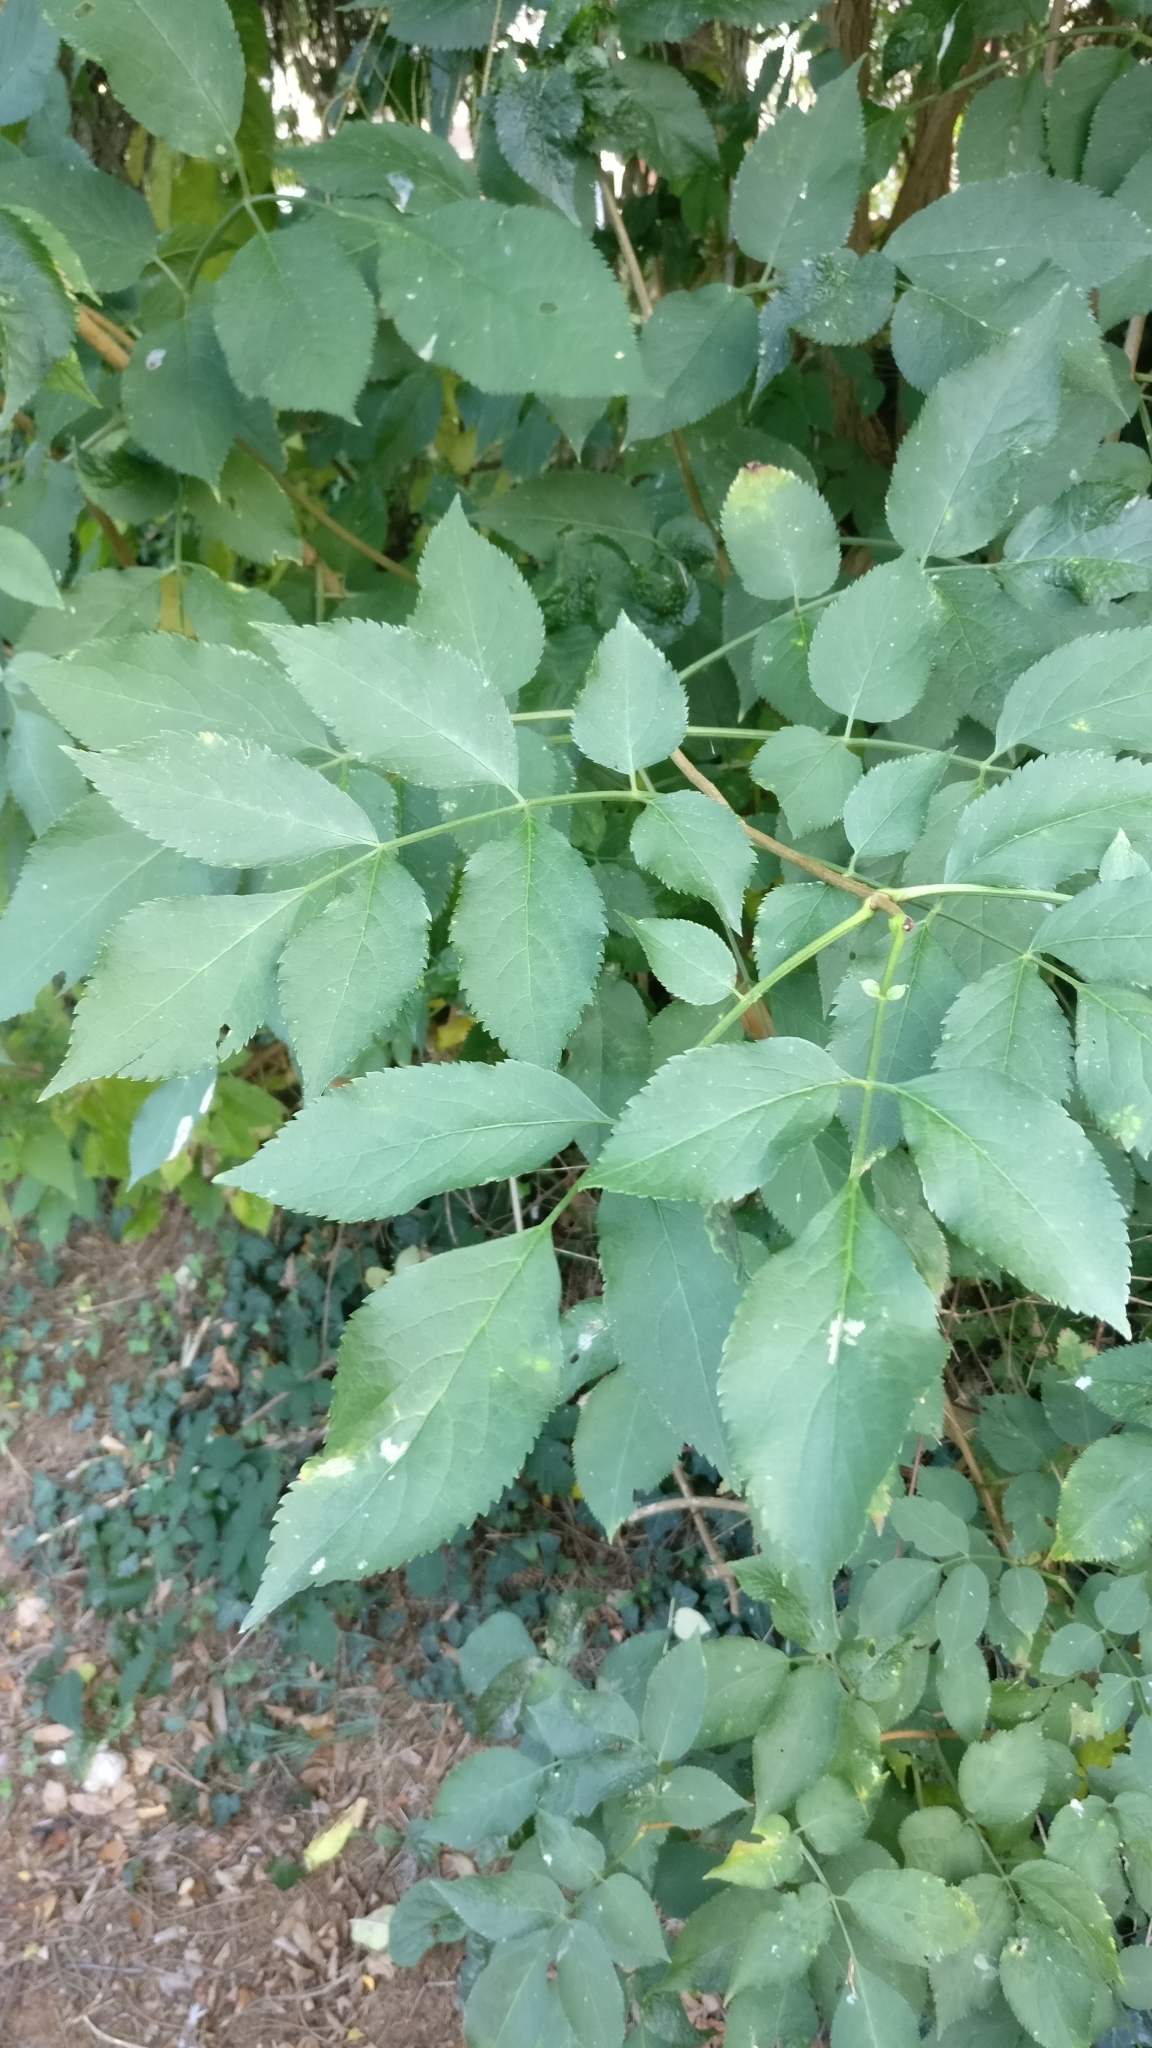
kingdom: Plantae
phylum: Tracheophyta
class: Magnoliopsida
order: Dipsacales
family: Viburnaceae
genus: Sambucus
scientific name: Sambucus nigra
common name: Elder
